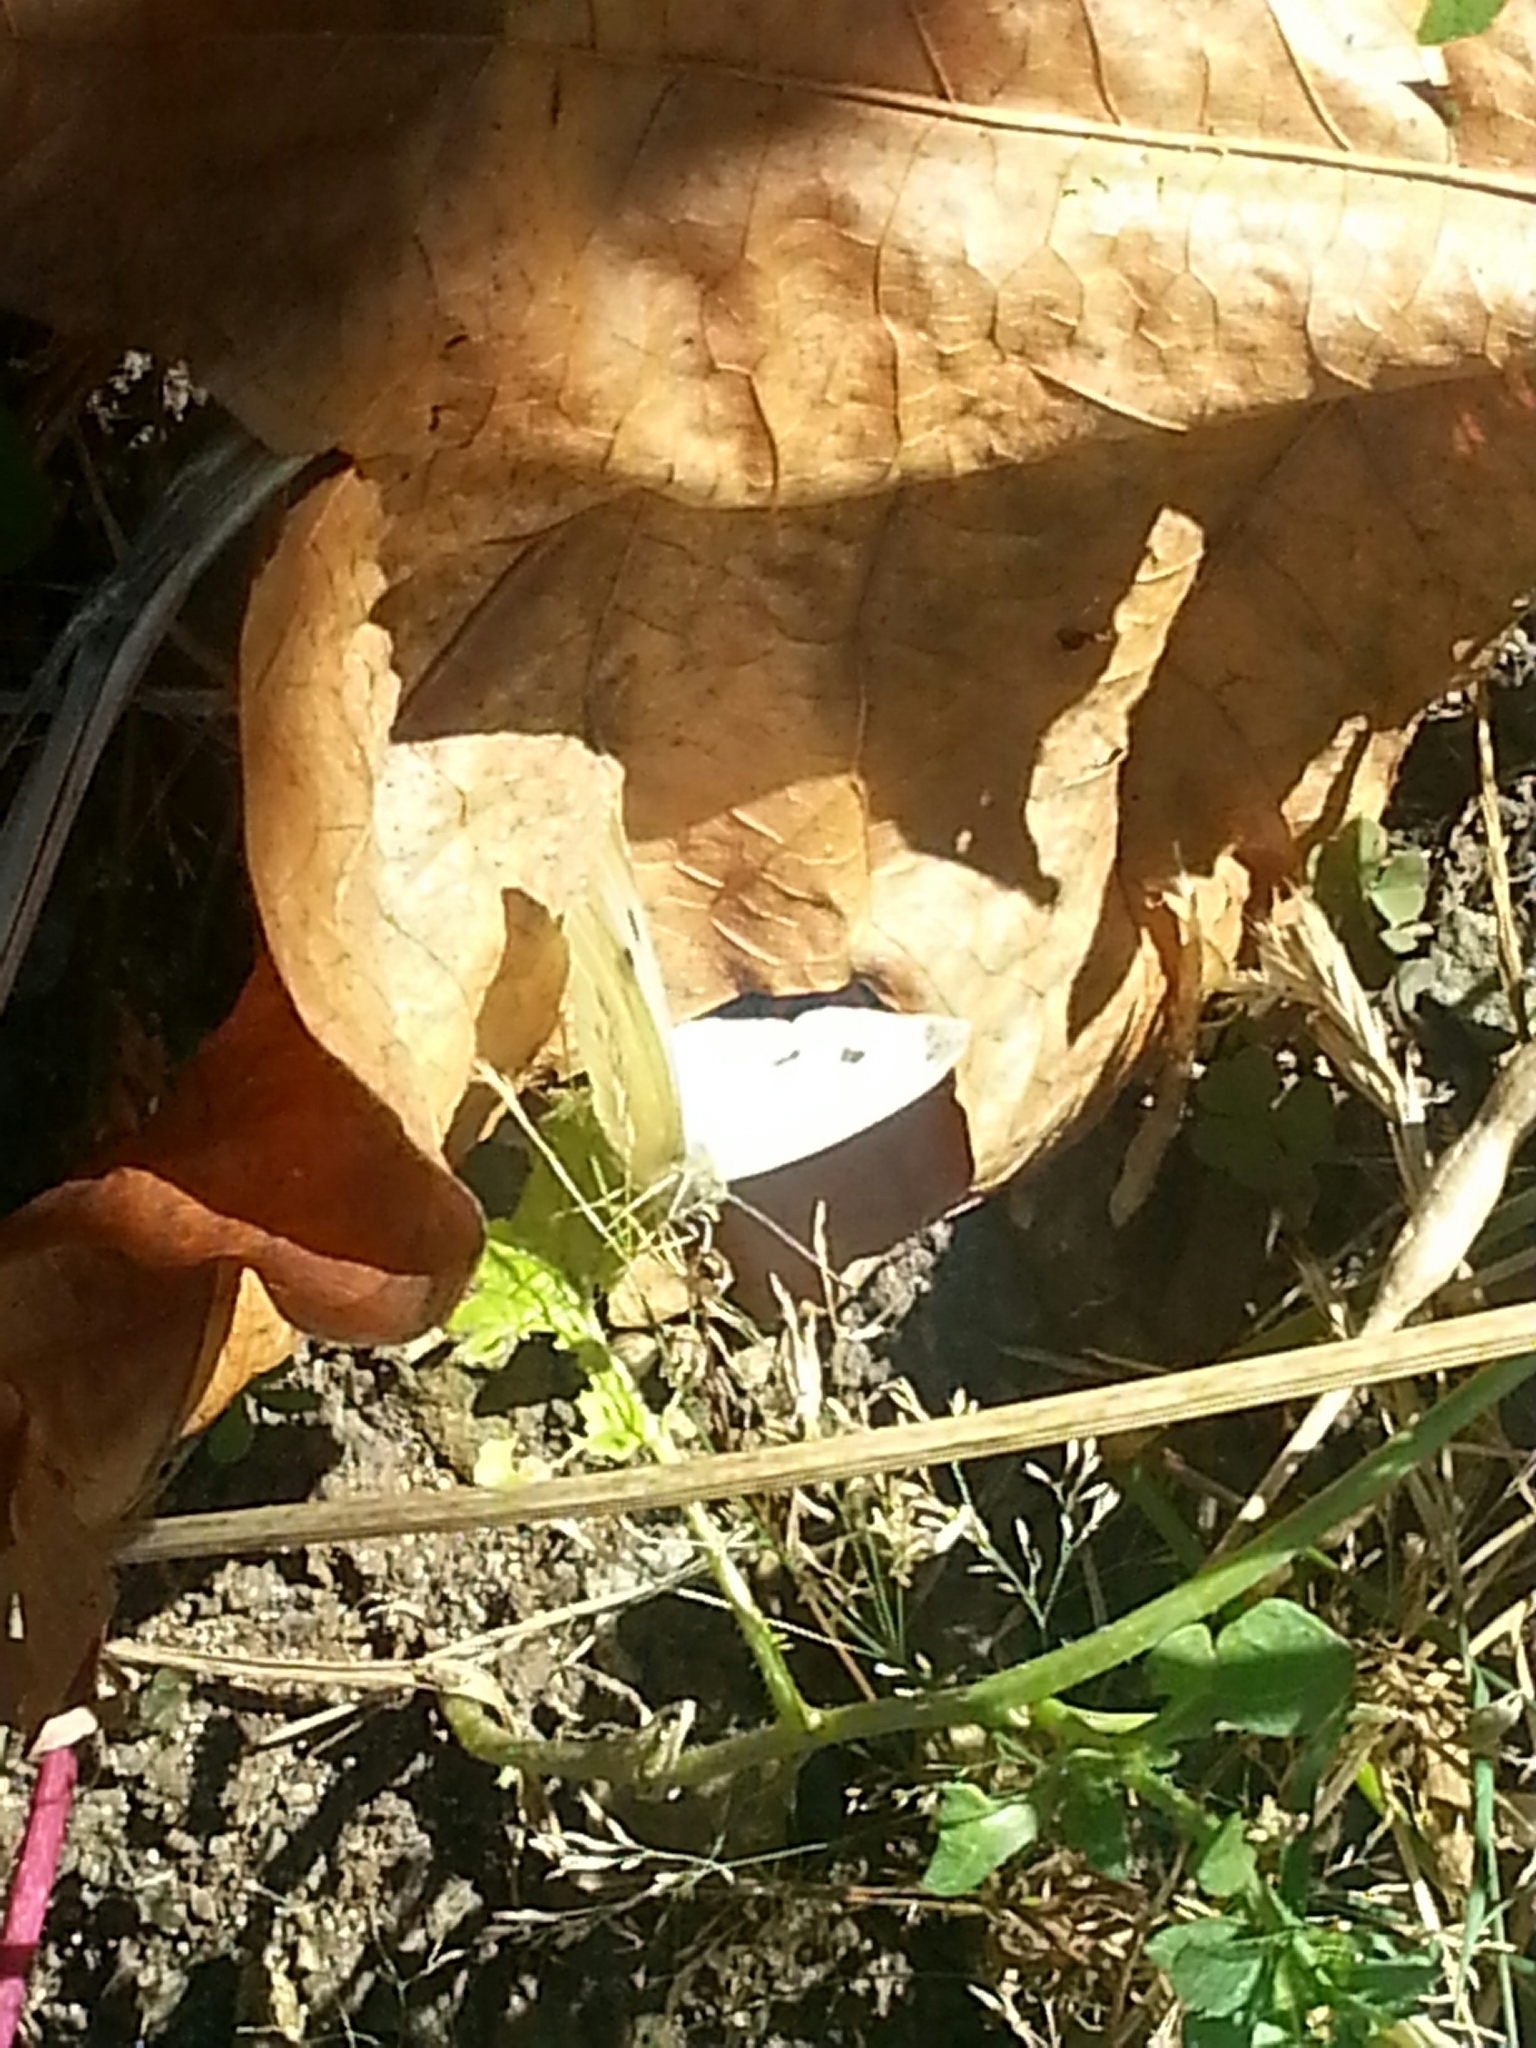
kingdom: Animalia
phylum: Arthropoda
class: Insecta
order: Lepidoptera
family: Pieridae
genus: Pieris
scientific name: Pieris rapae
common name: Small white
